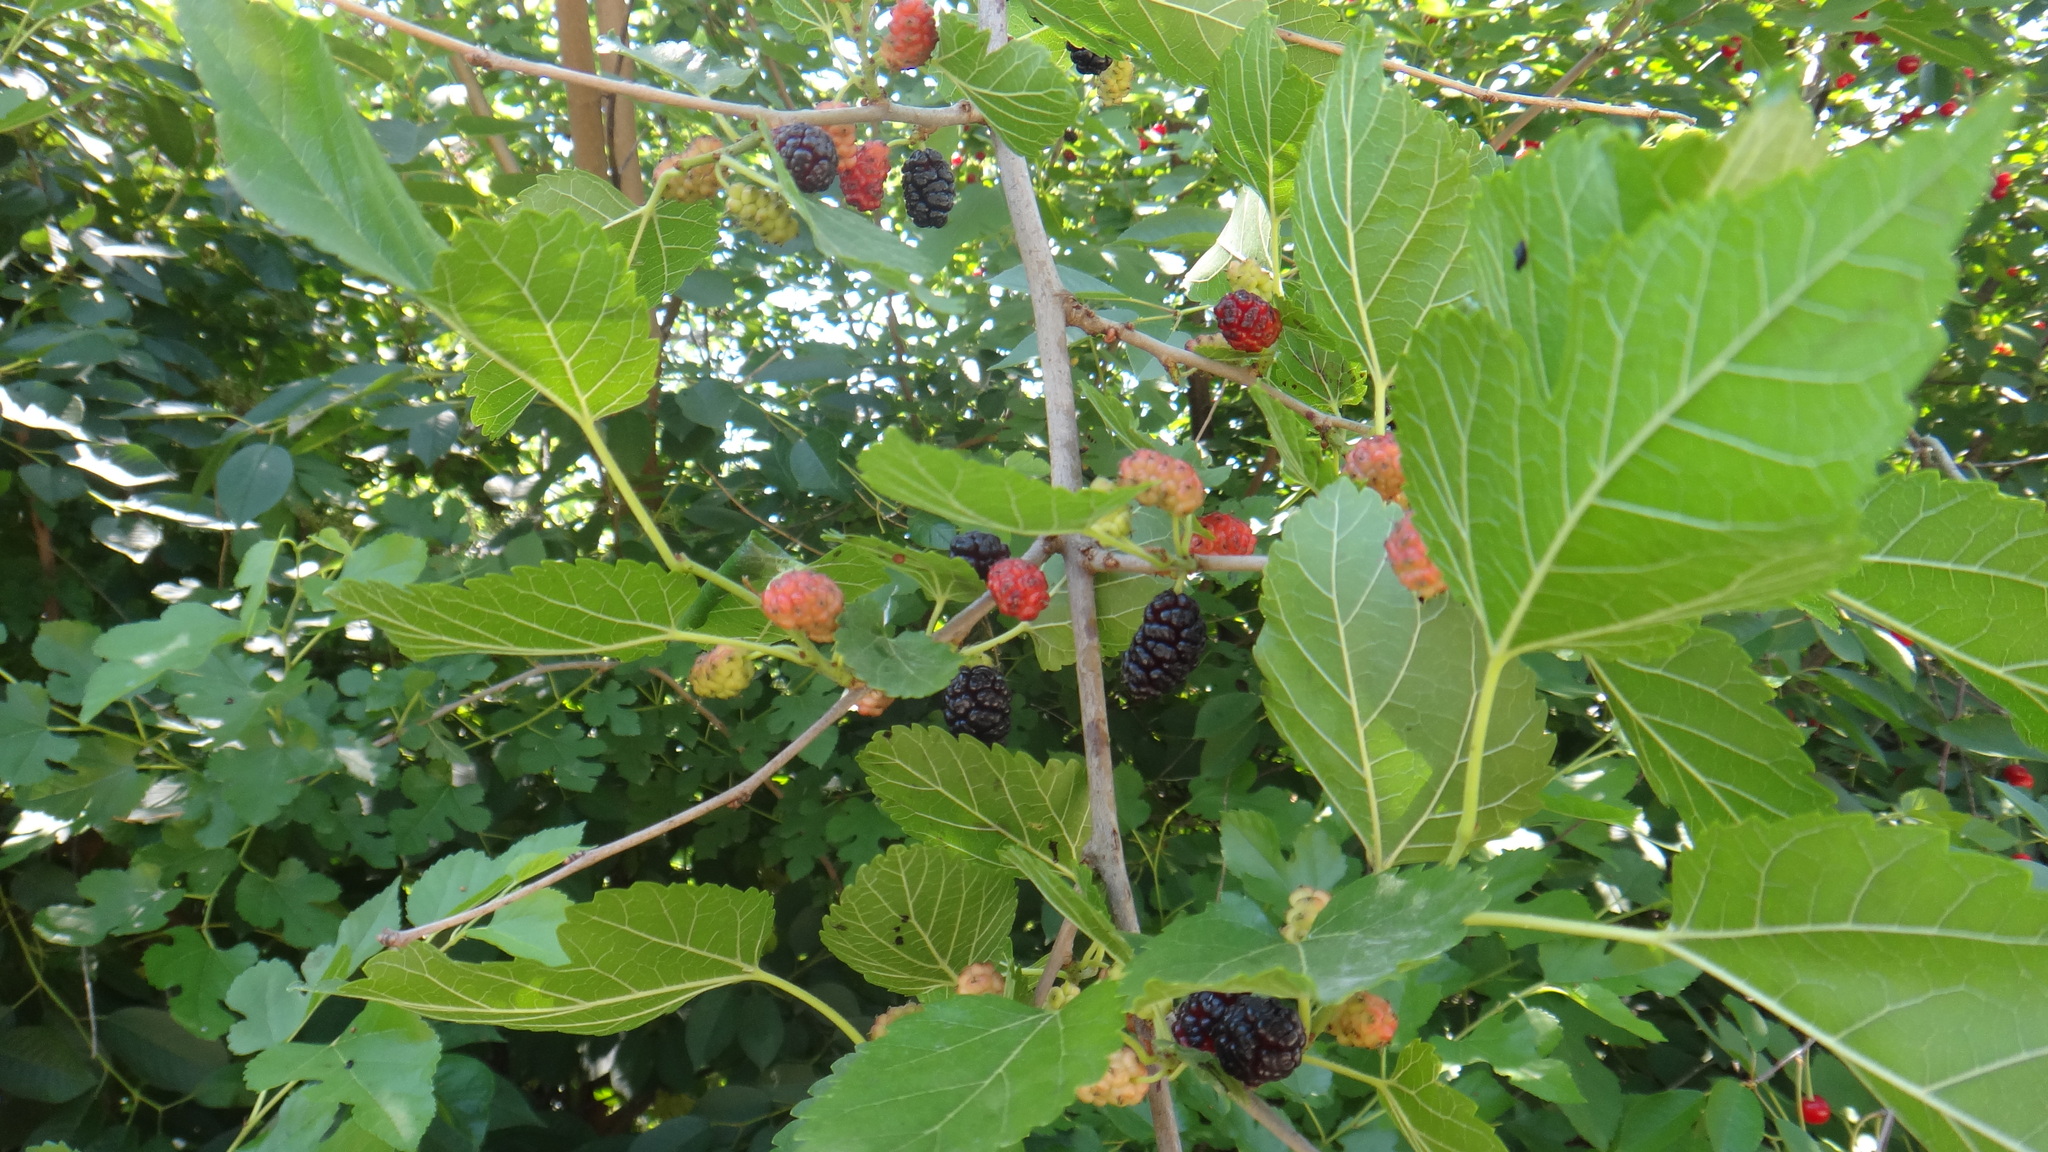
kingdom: Plantae
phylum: Tracheophyta
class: Magnoliopsida
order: Rosales
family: Moraceae
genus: Morus
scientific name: Morus alba
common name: White mulberry
